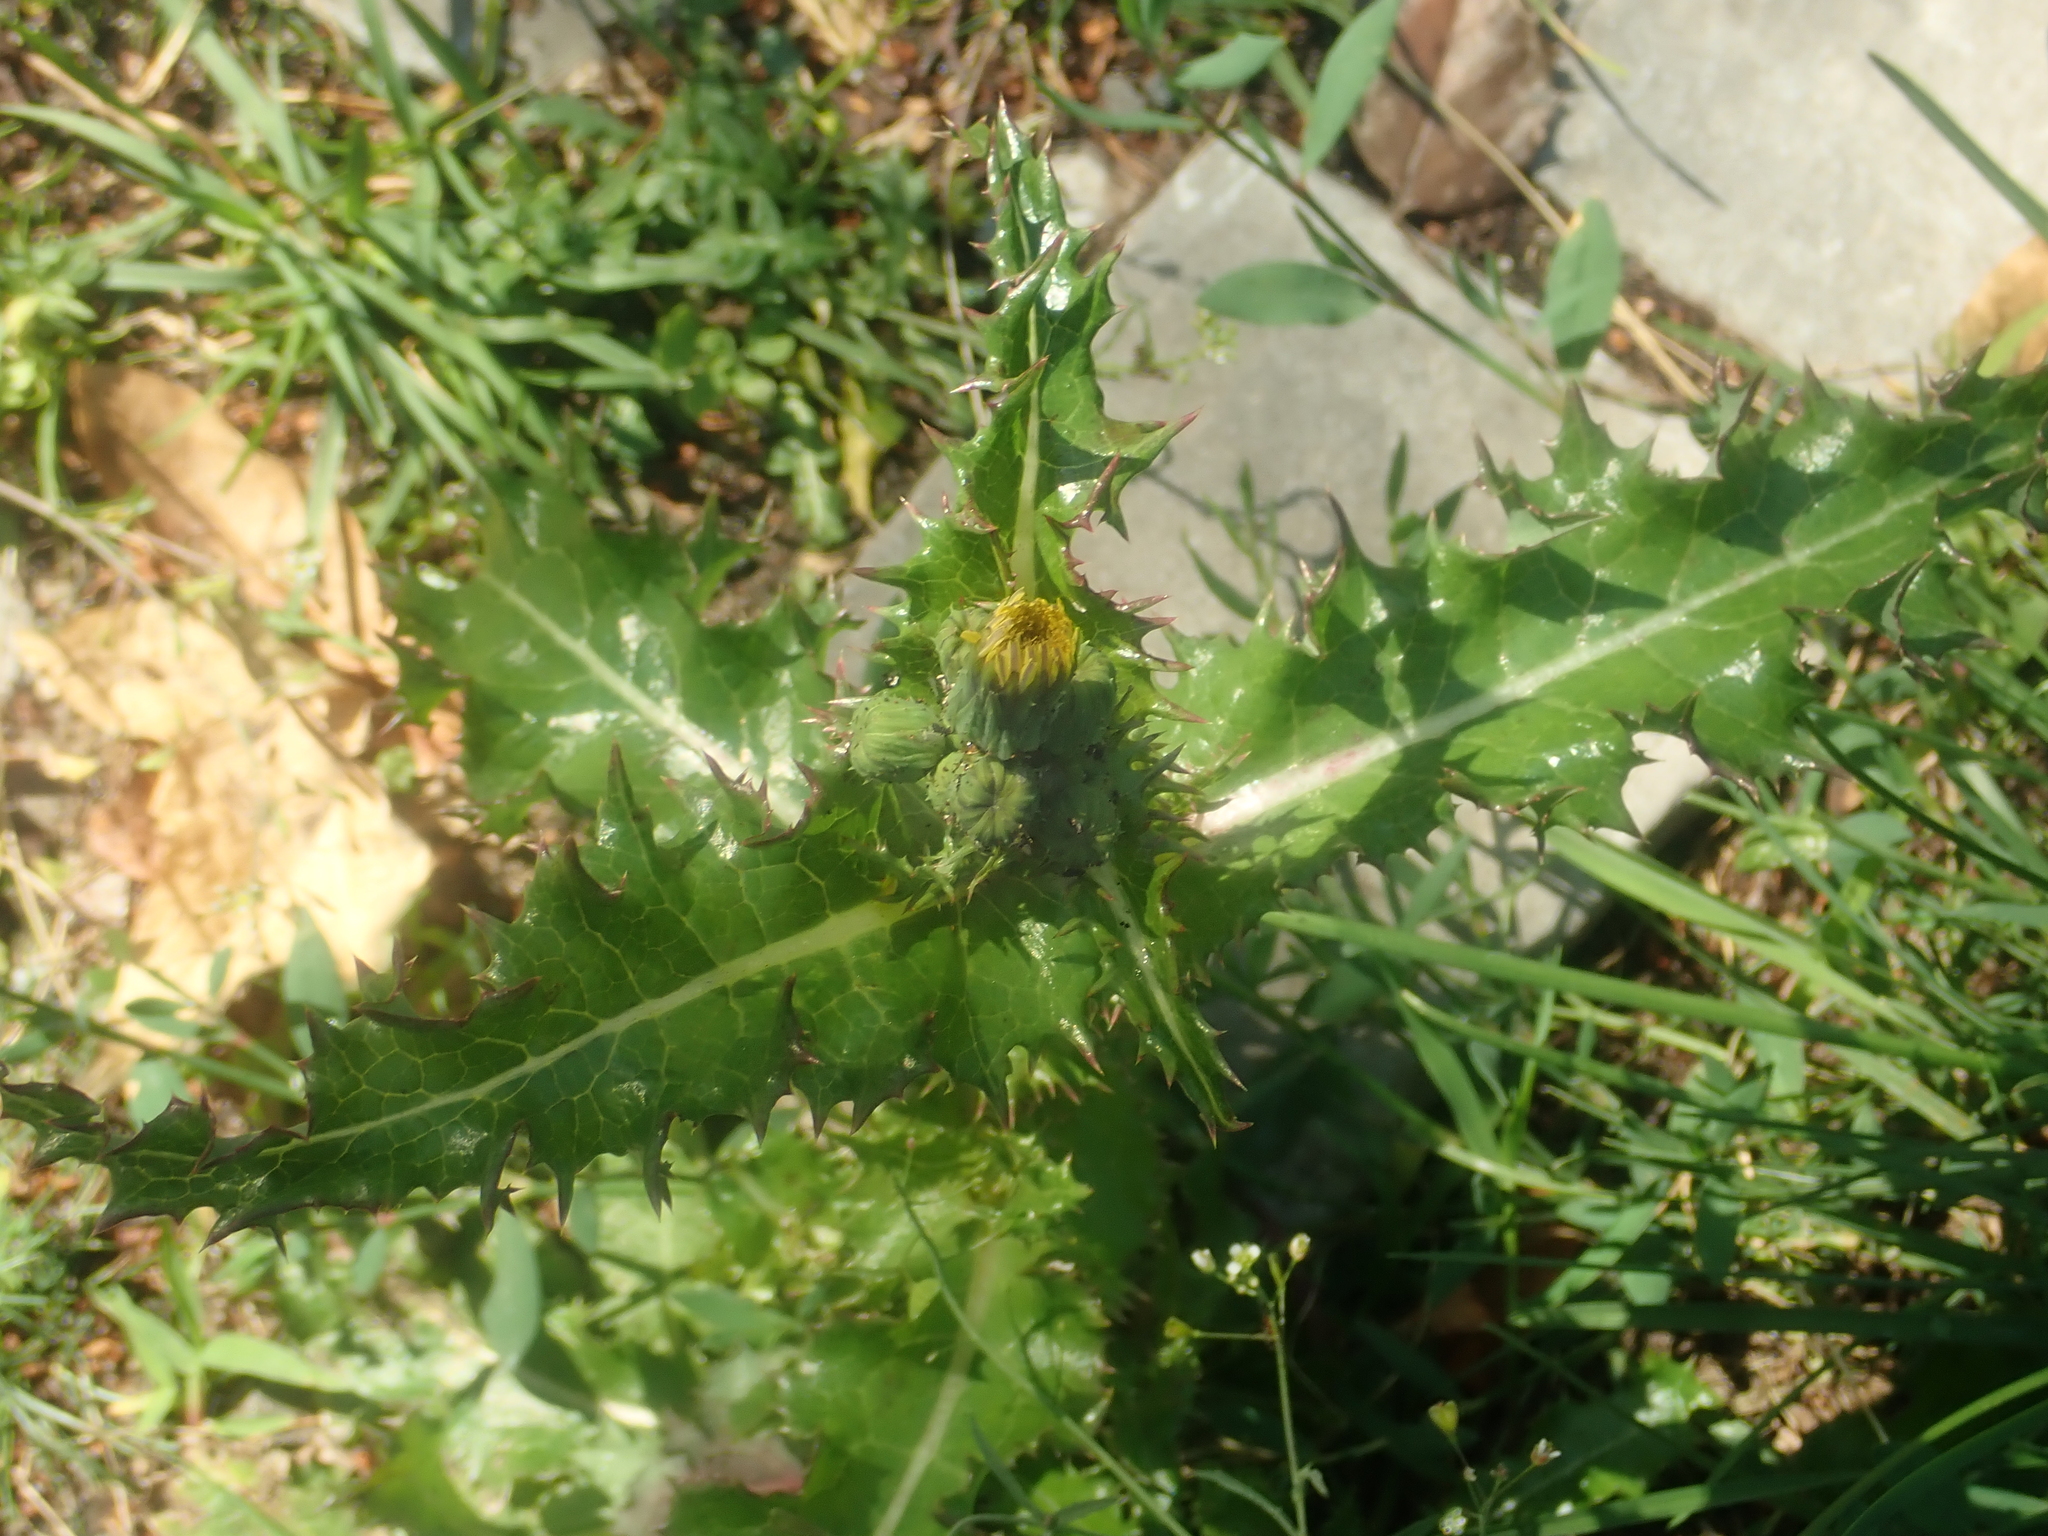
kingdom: Plantae
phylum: Tracheophyta
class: Magnoliopsida
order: Asterales
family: Asteraceae
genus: Sonchus
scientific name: Sonchus asper
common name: Prickly sow-thistle
